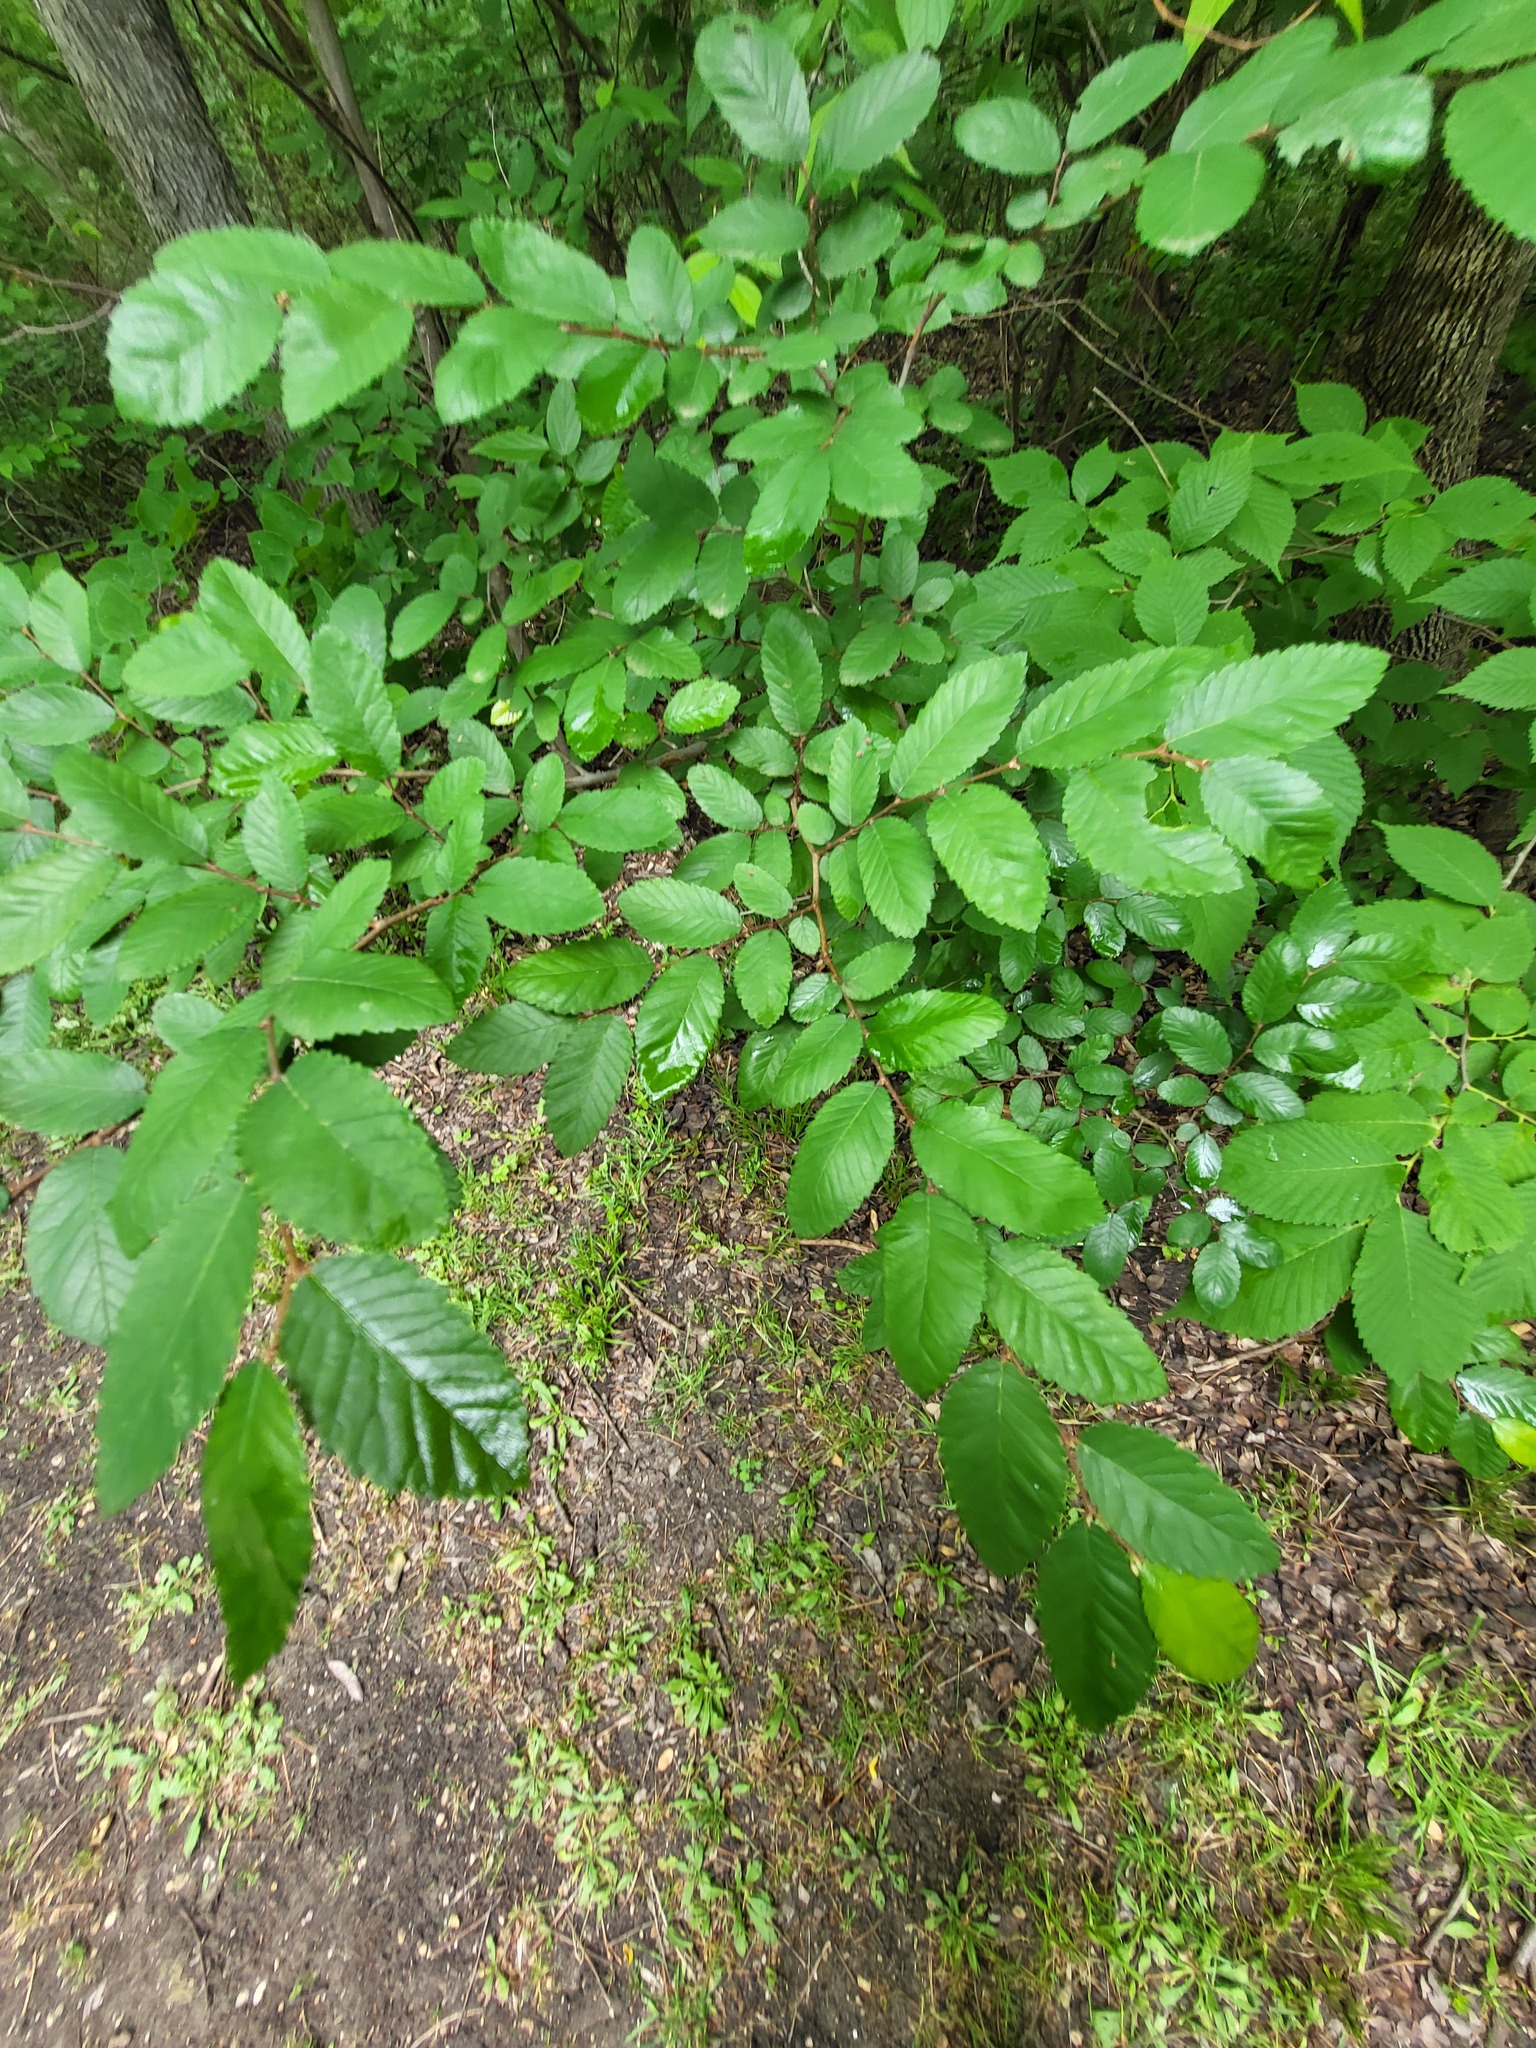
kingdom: Plantae
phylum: Tracheophyta
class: Magnoliopsida
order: Rosales
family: Ulmaceae
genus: Ulmus
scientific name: Ulmus crassifolia
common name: Basket elm
